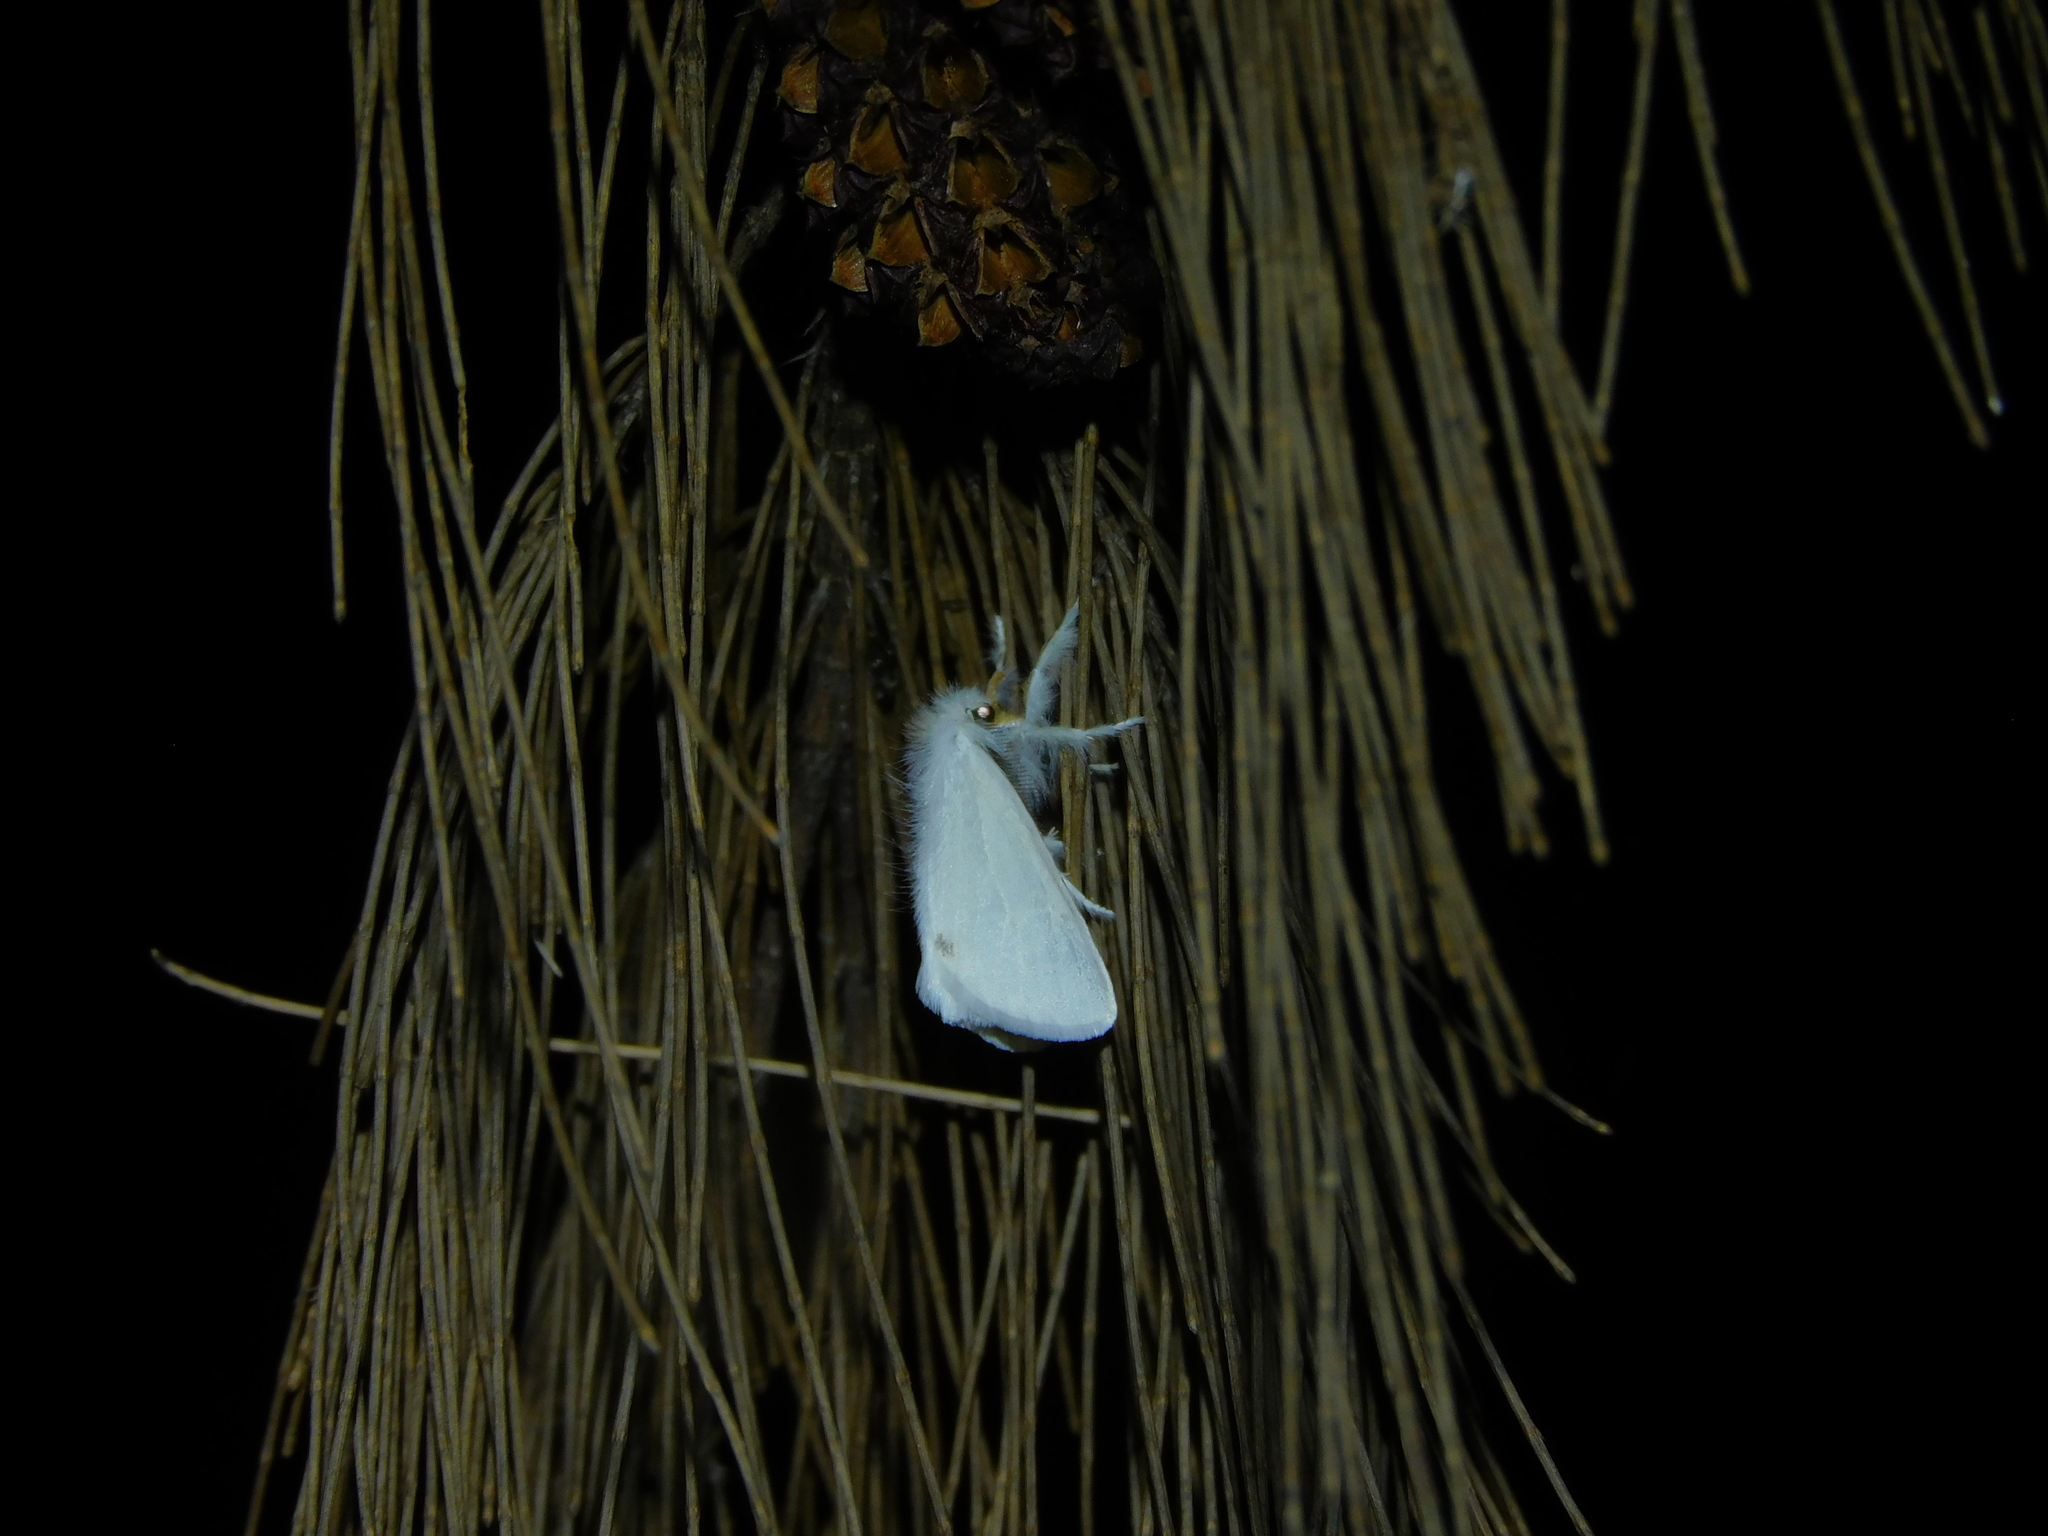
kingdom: Animalia
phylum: Arthropoda
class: Insecta
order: Lepidoptera
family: Erebidae
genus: Acyphas
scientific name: Acyphas semiochrea
